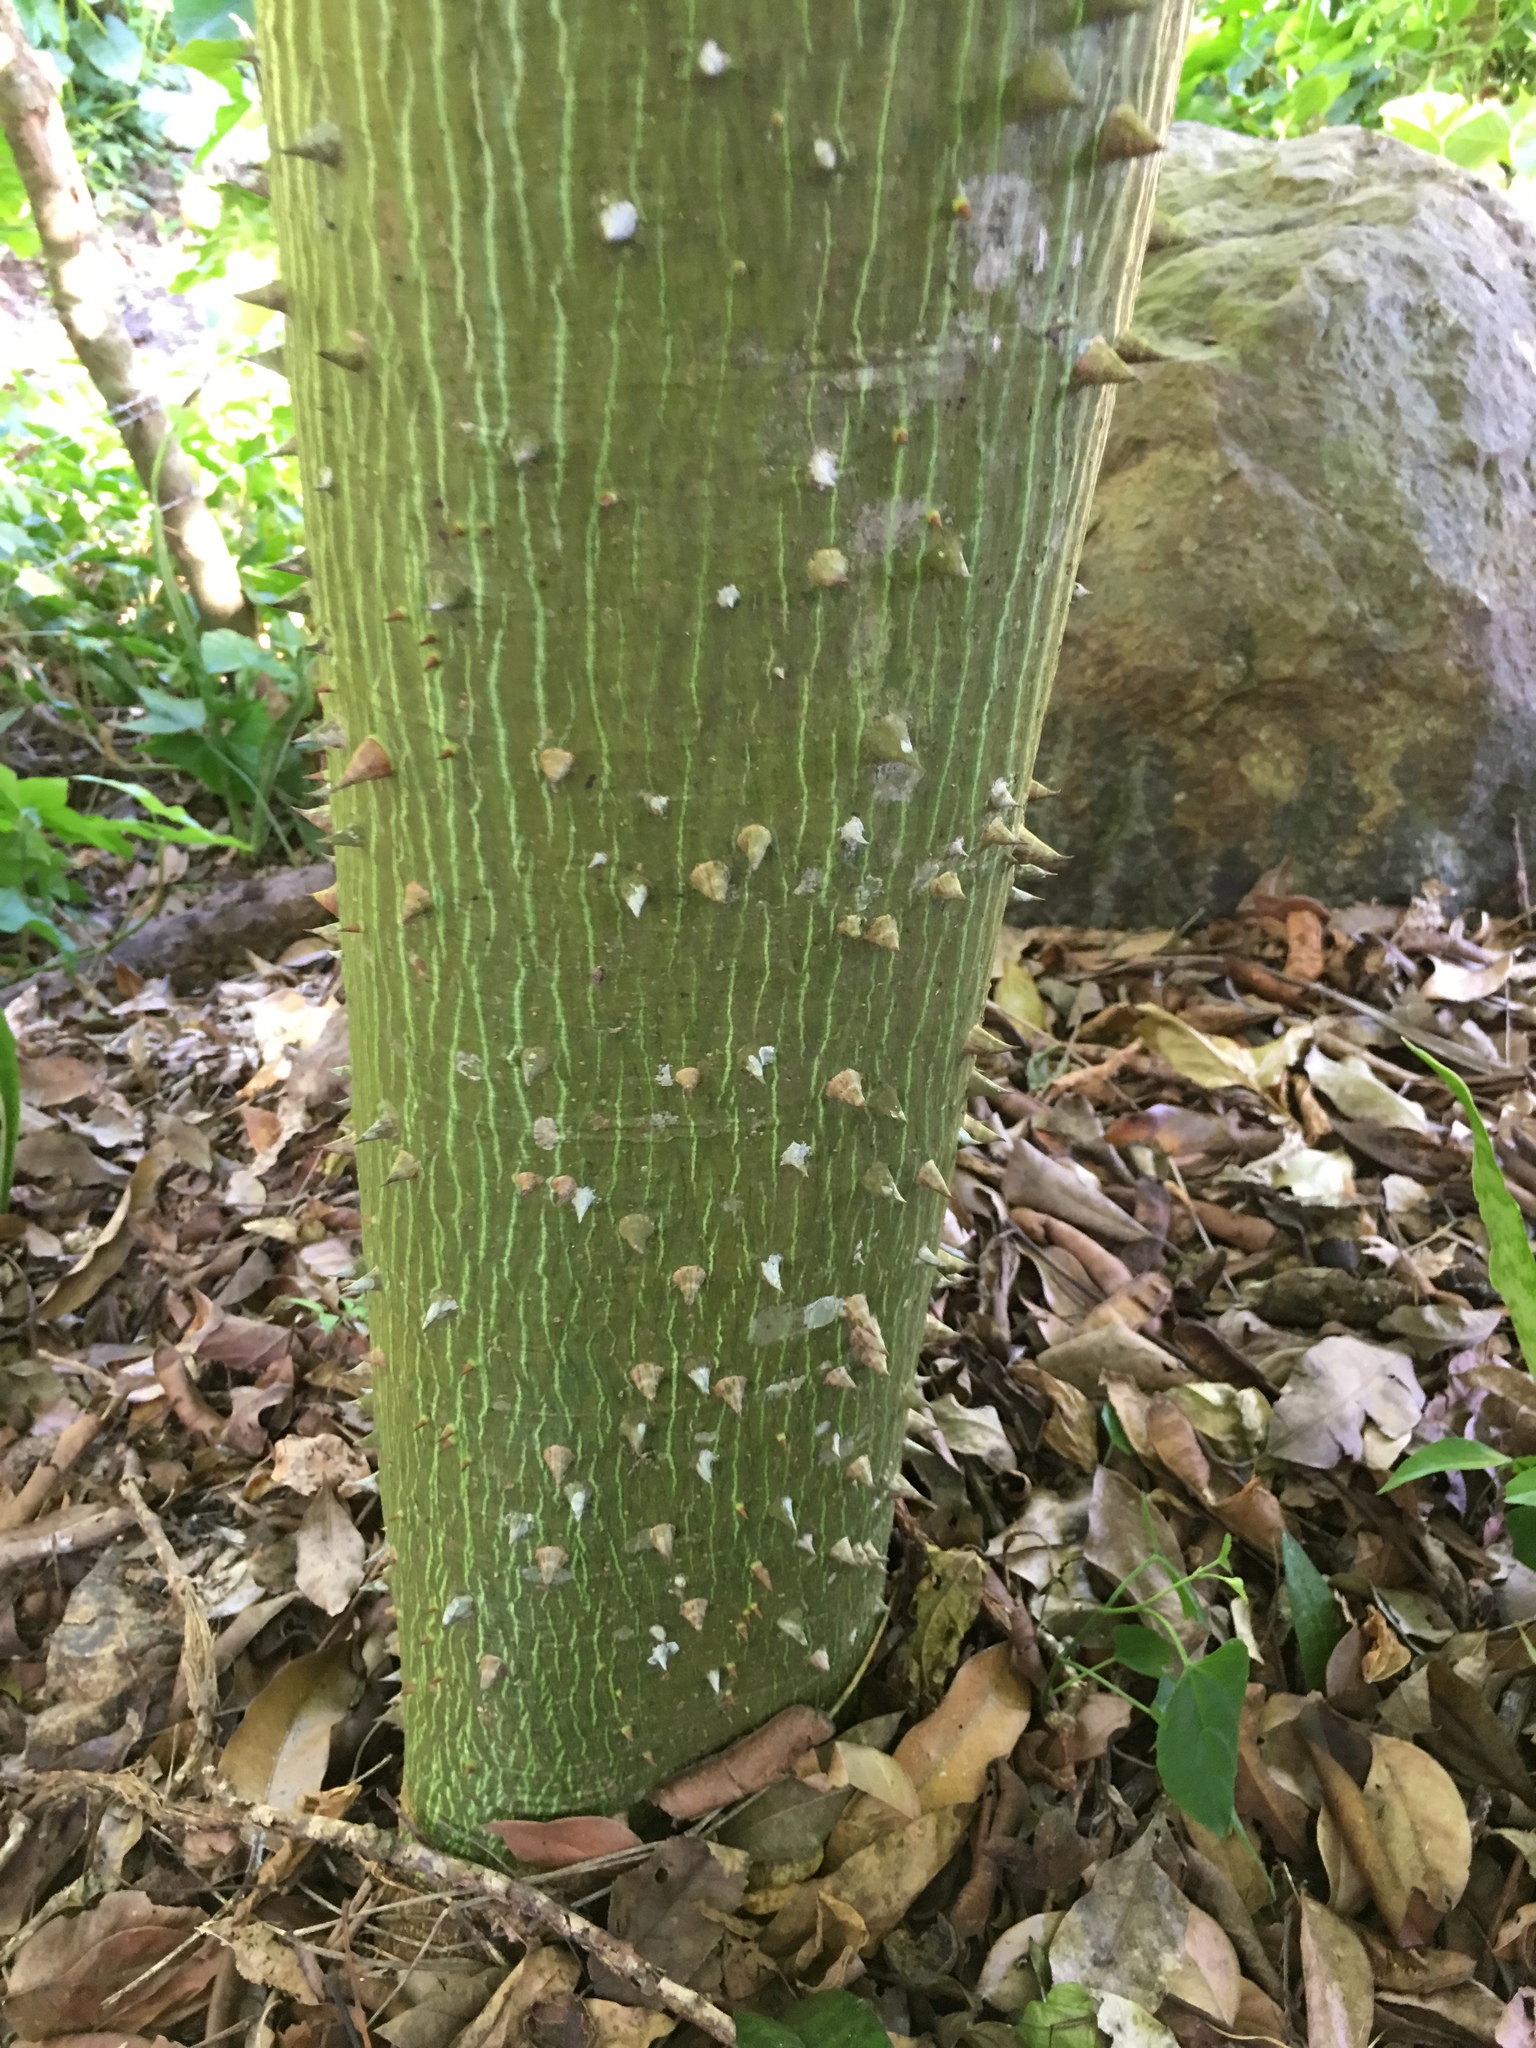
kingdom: Plantae
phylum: Tracheophyta
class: Magnoliopsida
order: Malvales
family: Malvaceae
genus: Ceiba
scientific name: Ceiba pentandra
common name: Kapok
